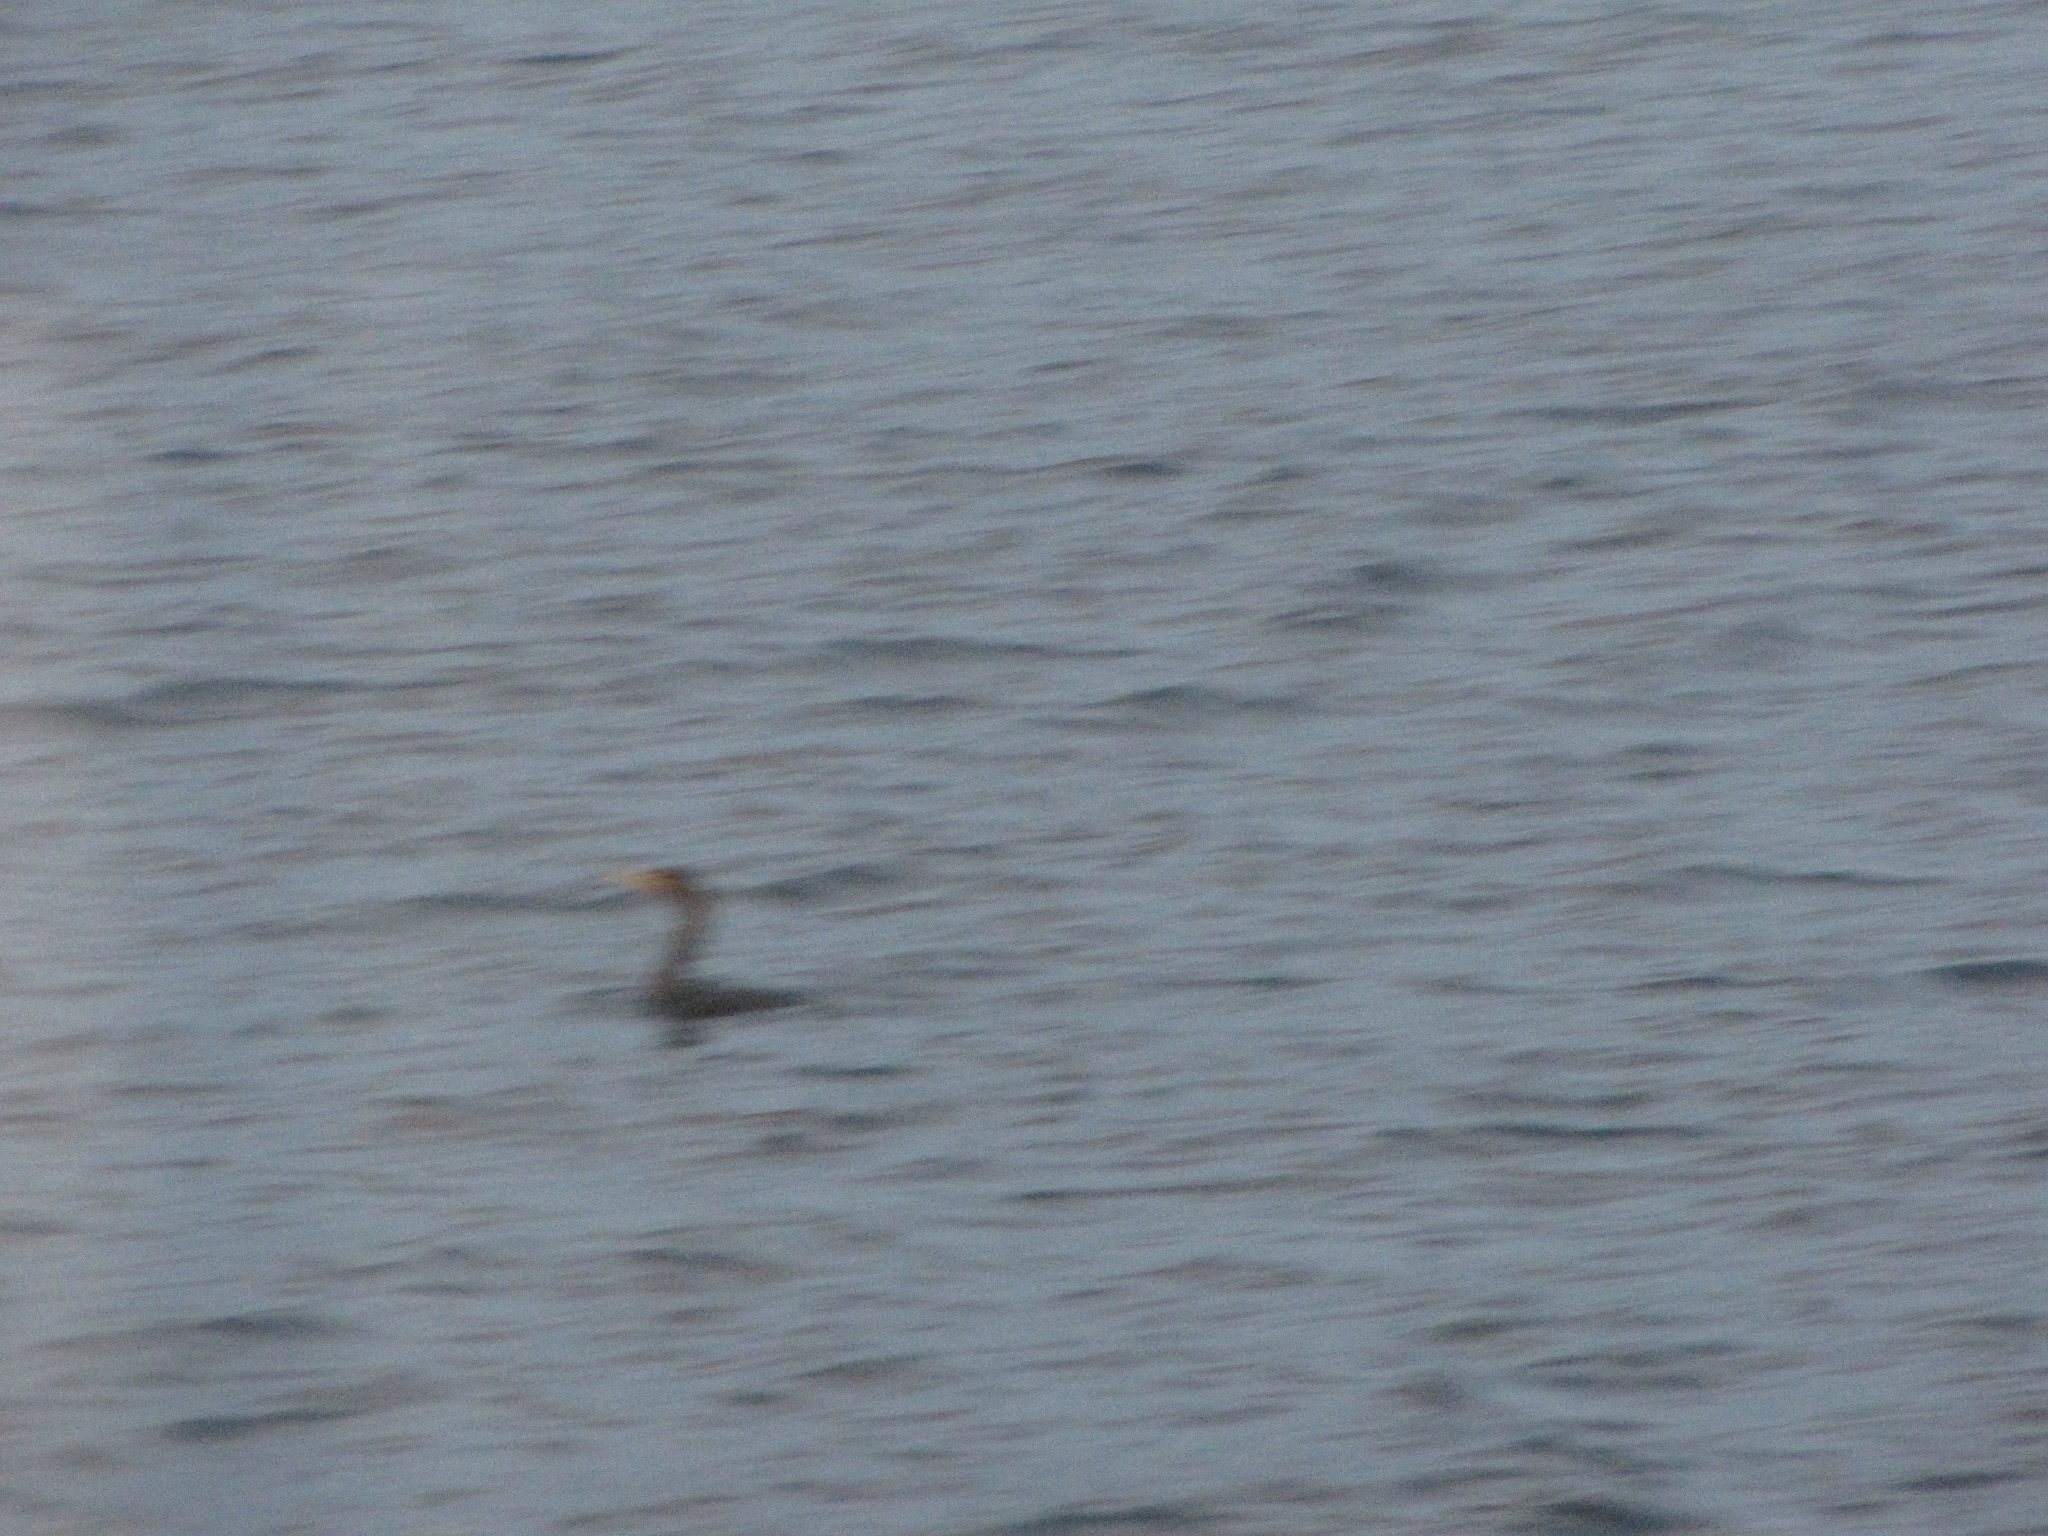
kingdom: Animalia
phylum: Chordata
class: Aves
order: Suliformes
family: Phalacrocoracidae
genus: Phalacrocorax
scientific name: Phalacrocorax auritus
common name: Double-crested cormorant
